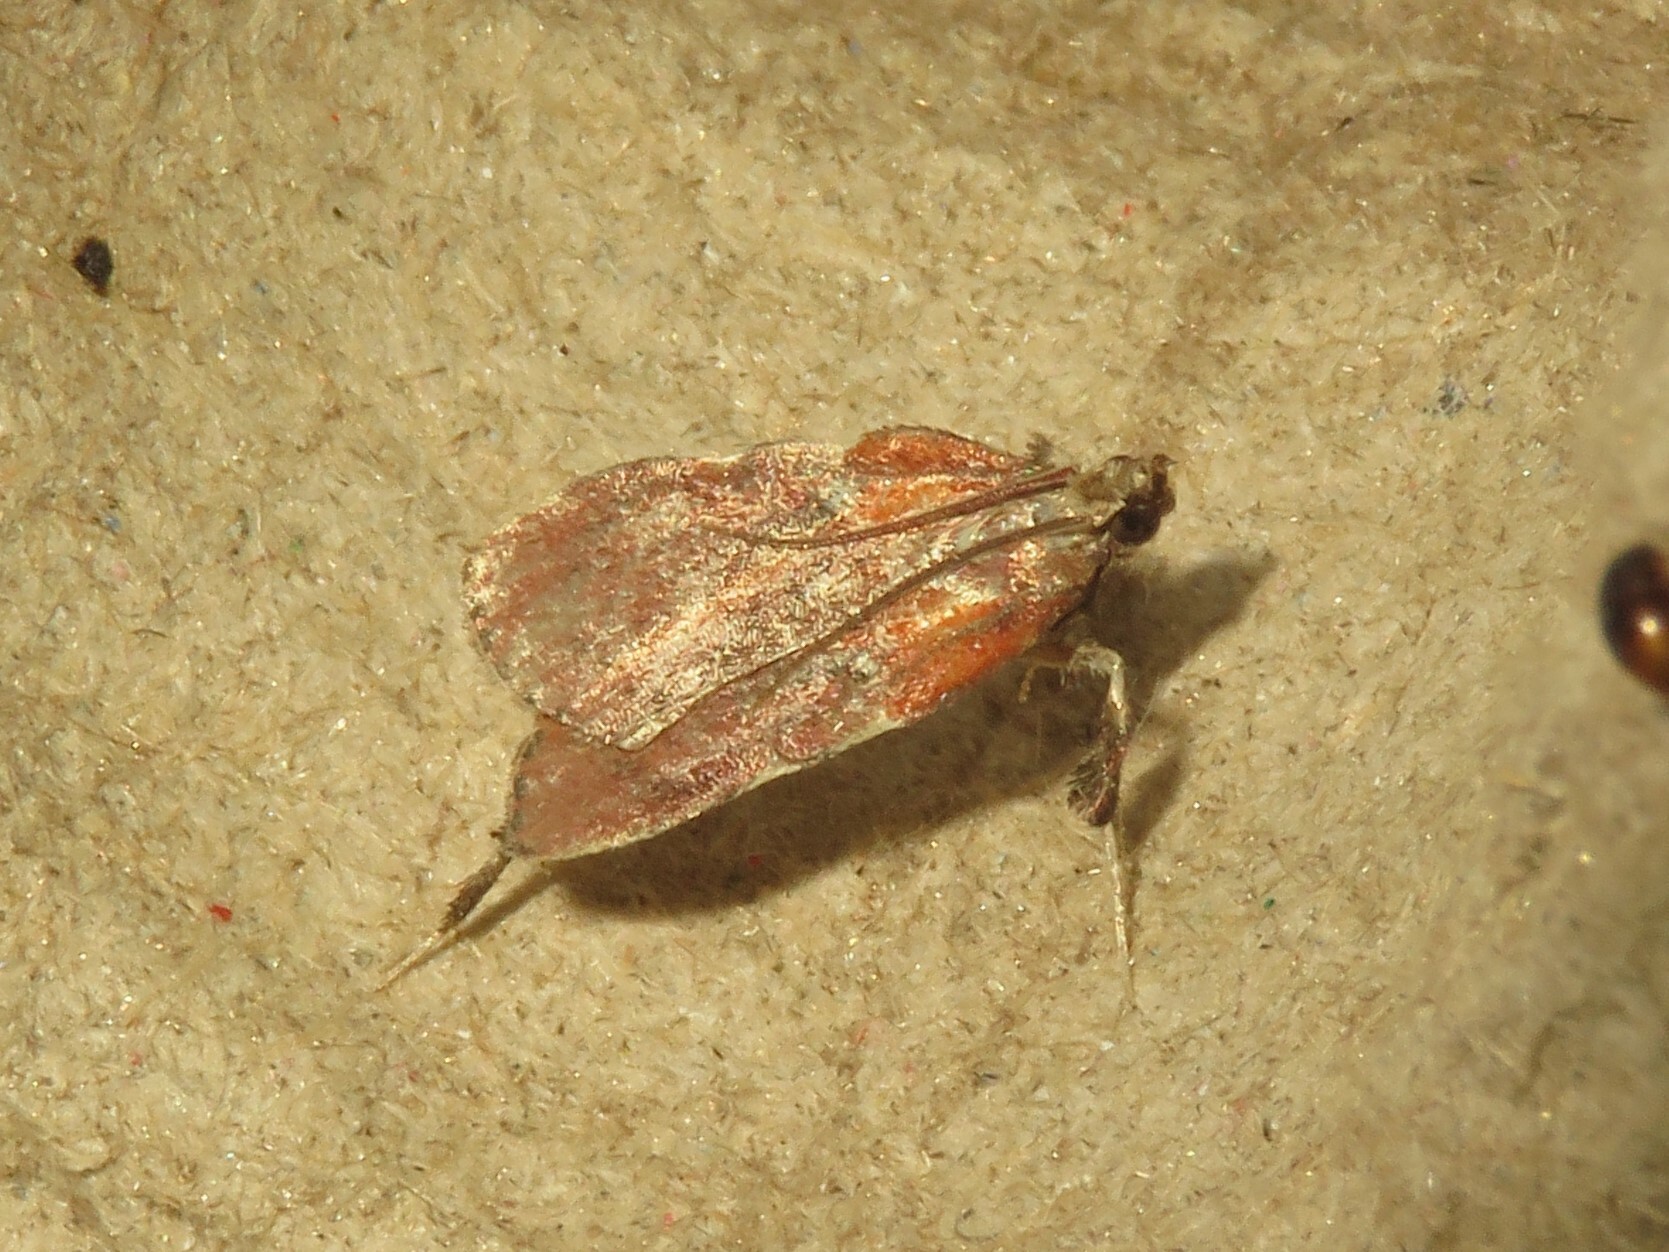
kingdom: Animalia
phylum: Arthropoda
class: Insecta
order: Lepidoptera
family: Pyralidae
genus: Galasa
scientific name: Galasa nigrinodis
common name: Boxwood leaftier moth
